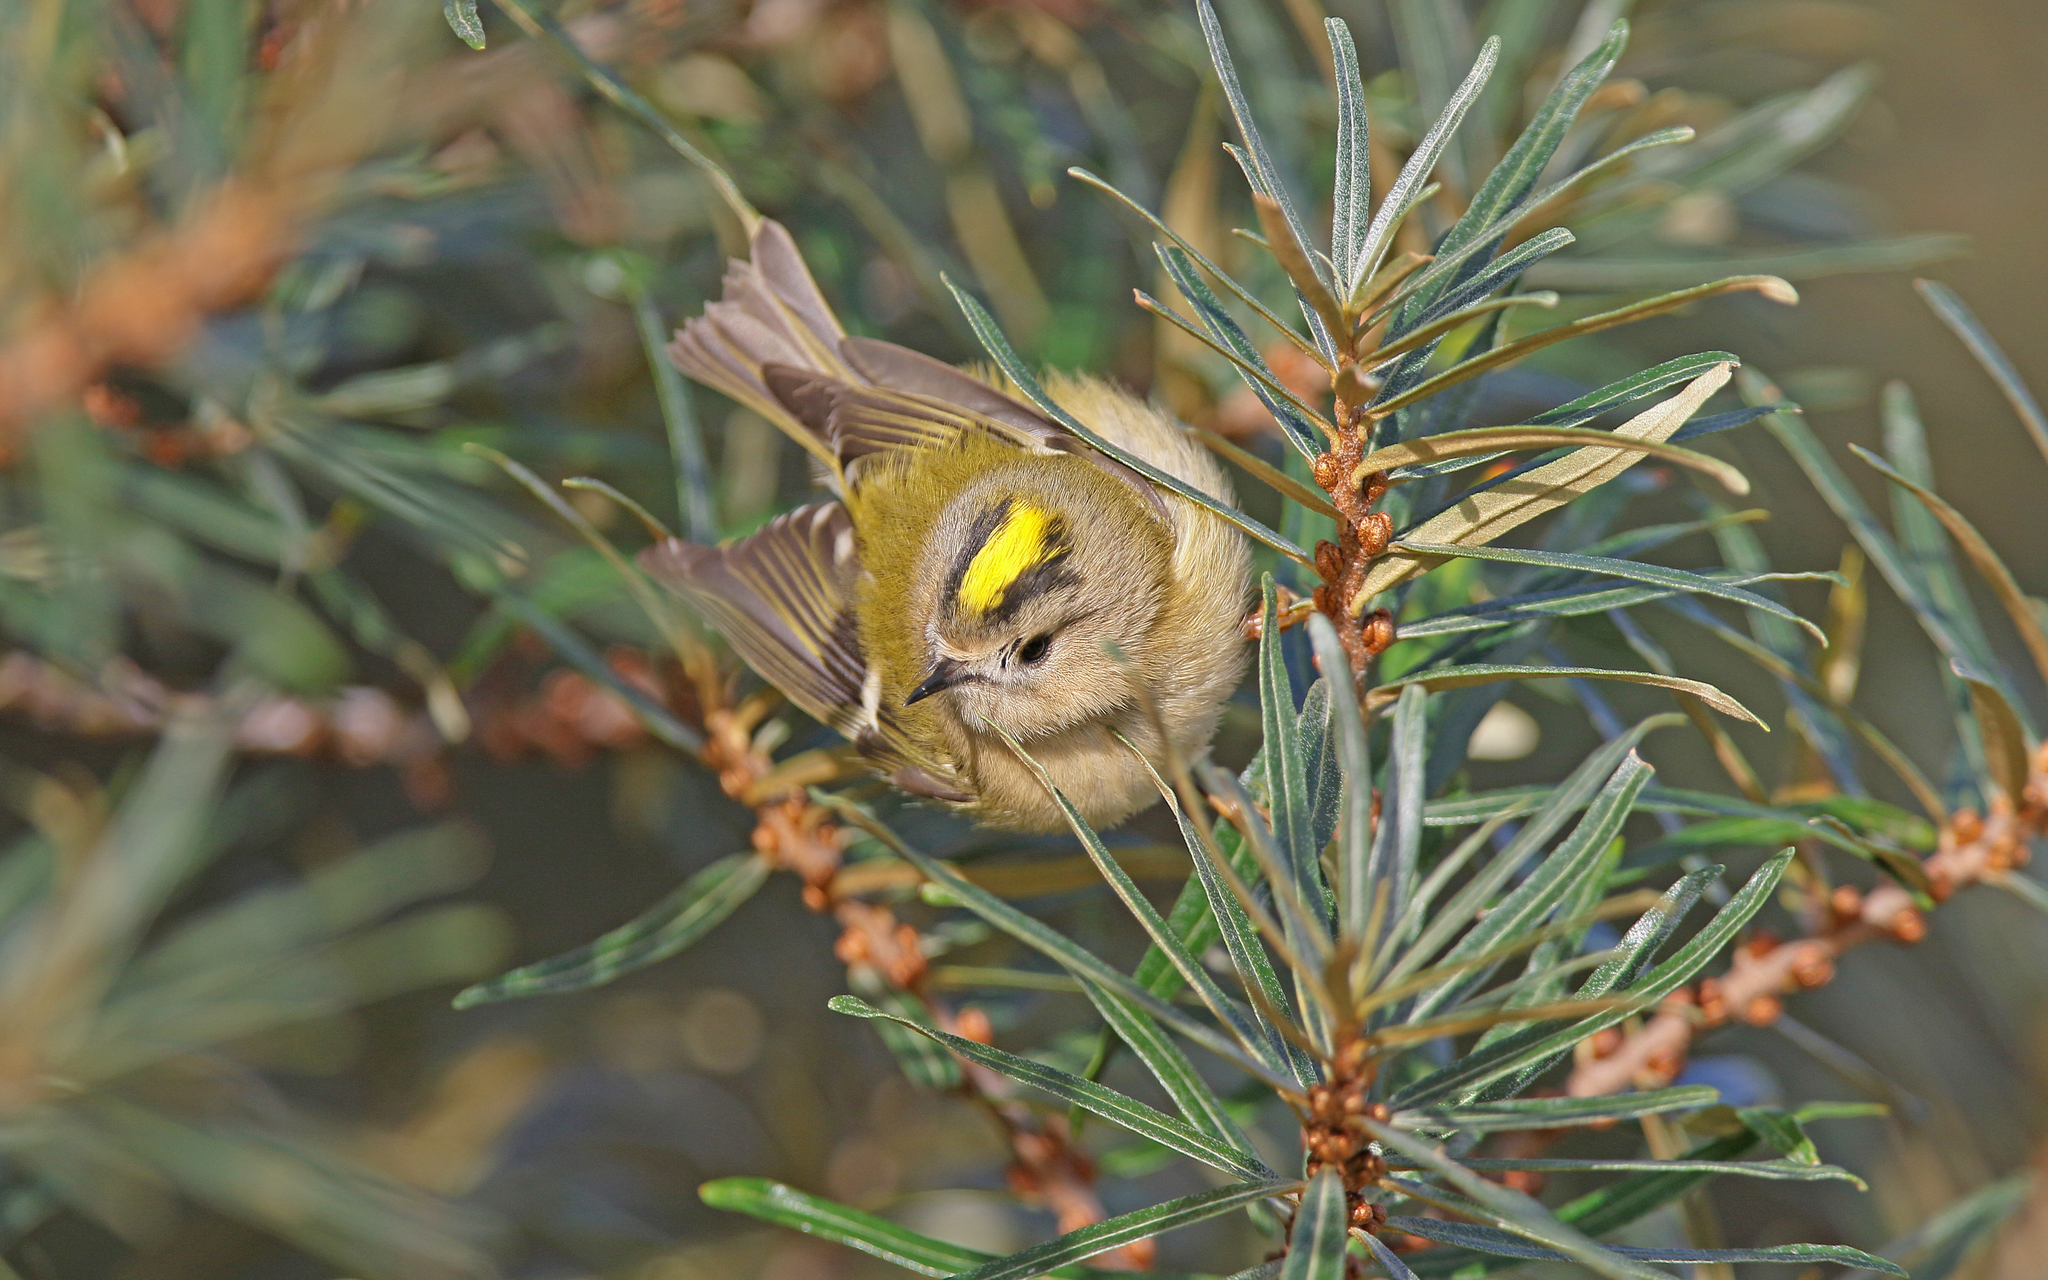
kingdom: Animalia
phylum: Chordata
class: Aves
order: Passeriformes
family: Regulidae
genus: Regulus
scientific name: Regulus regulus
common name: Goldcrest
